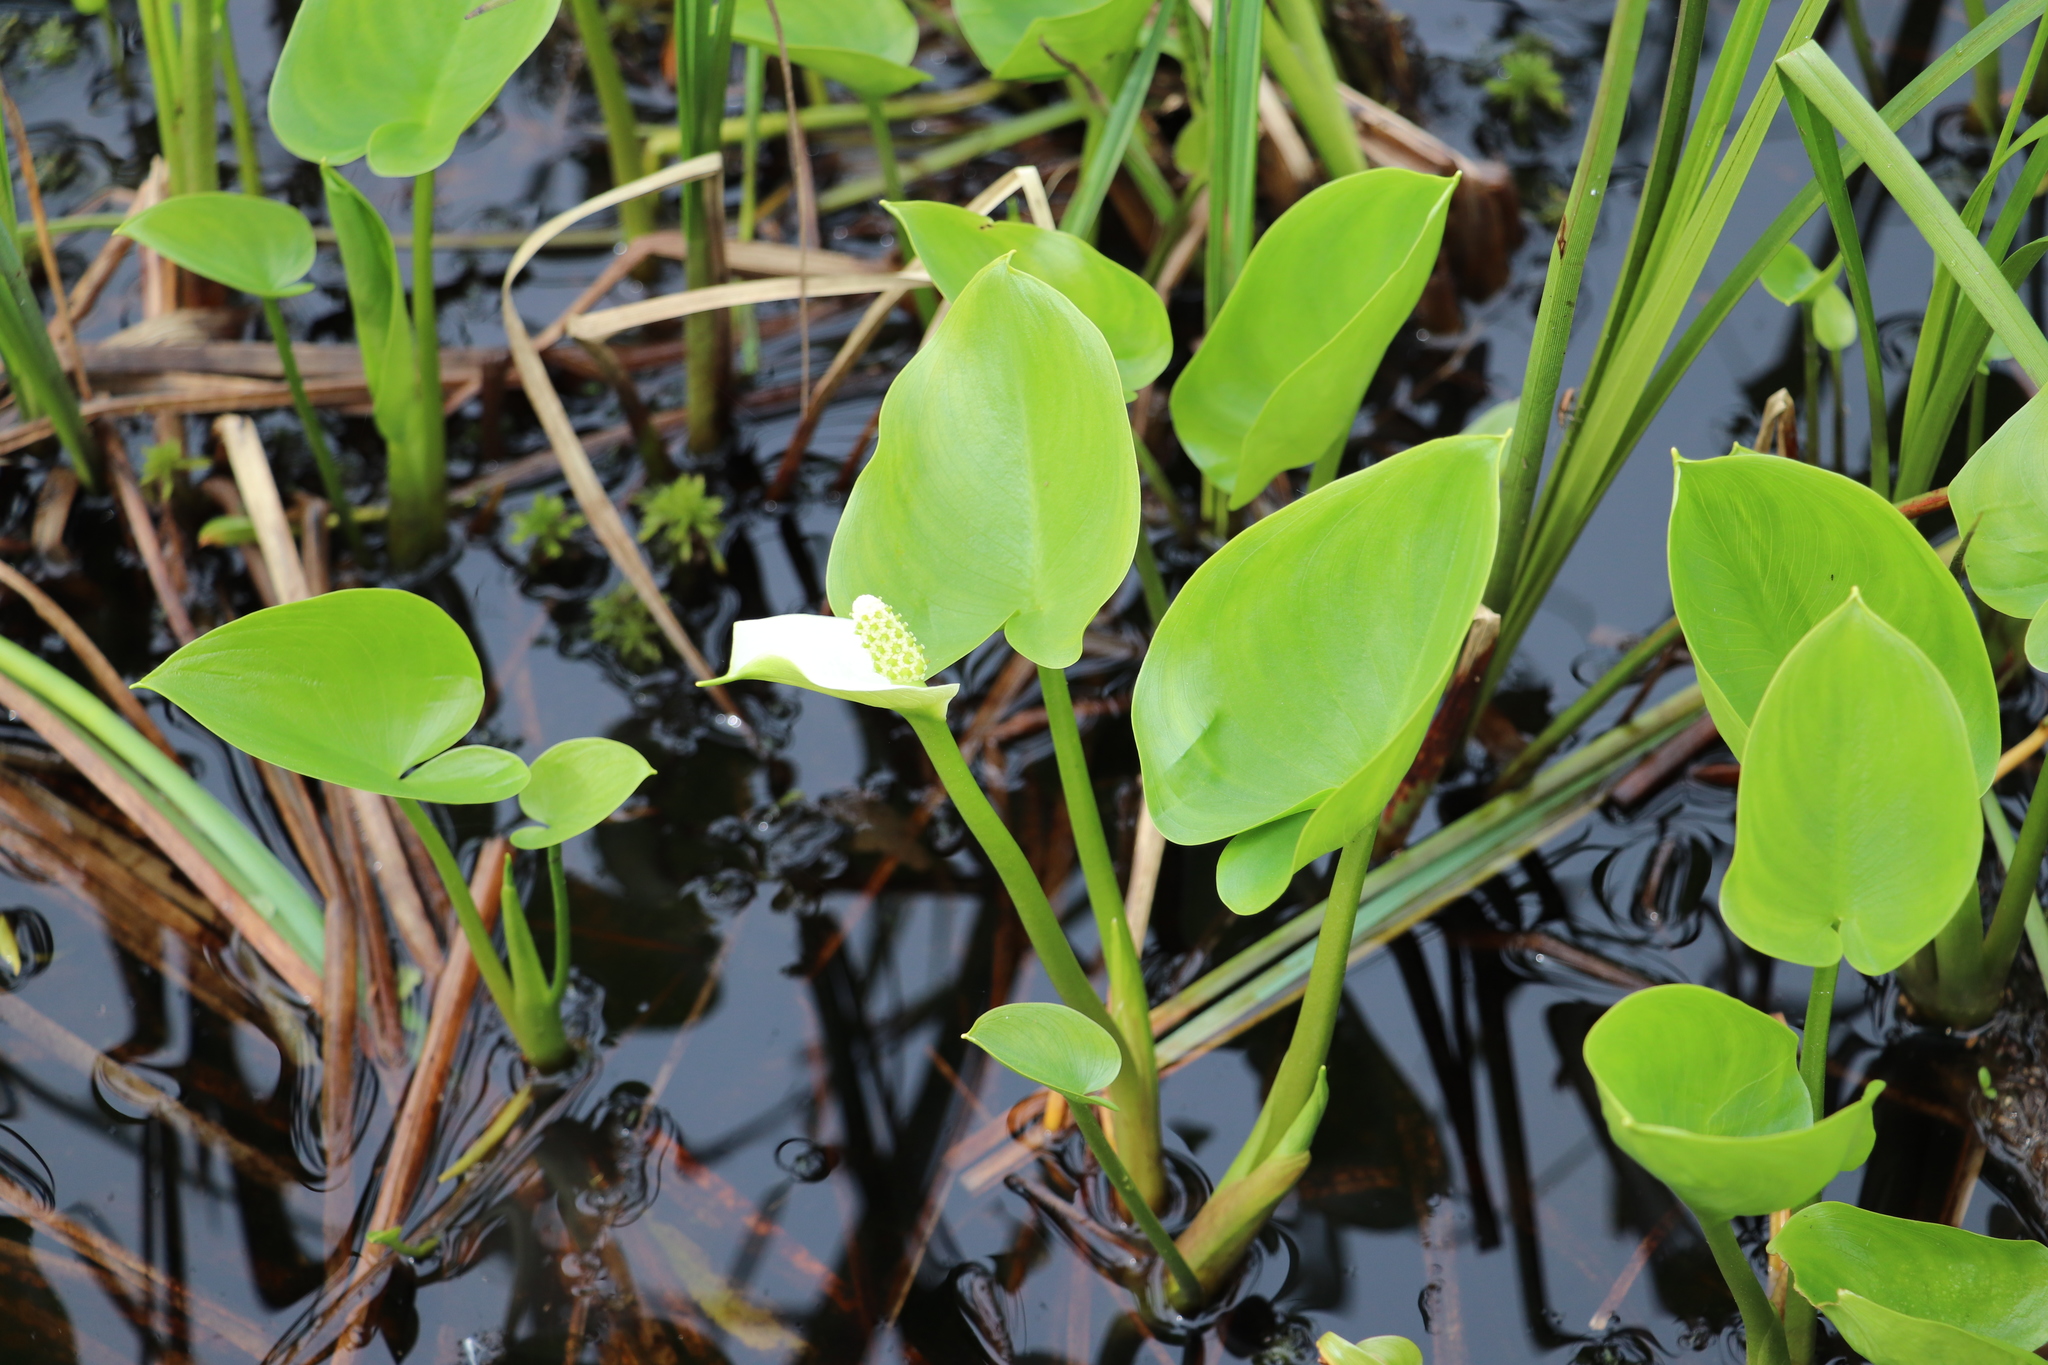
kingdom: Plantae
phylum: Tracheophyta
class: Liliopsida
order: Alismatales
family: Araceae
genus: Calla
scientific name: Calla palustris
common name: Bog arum
